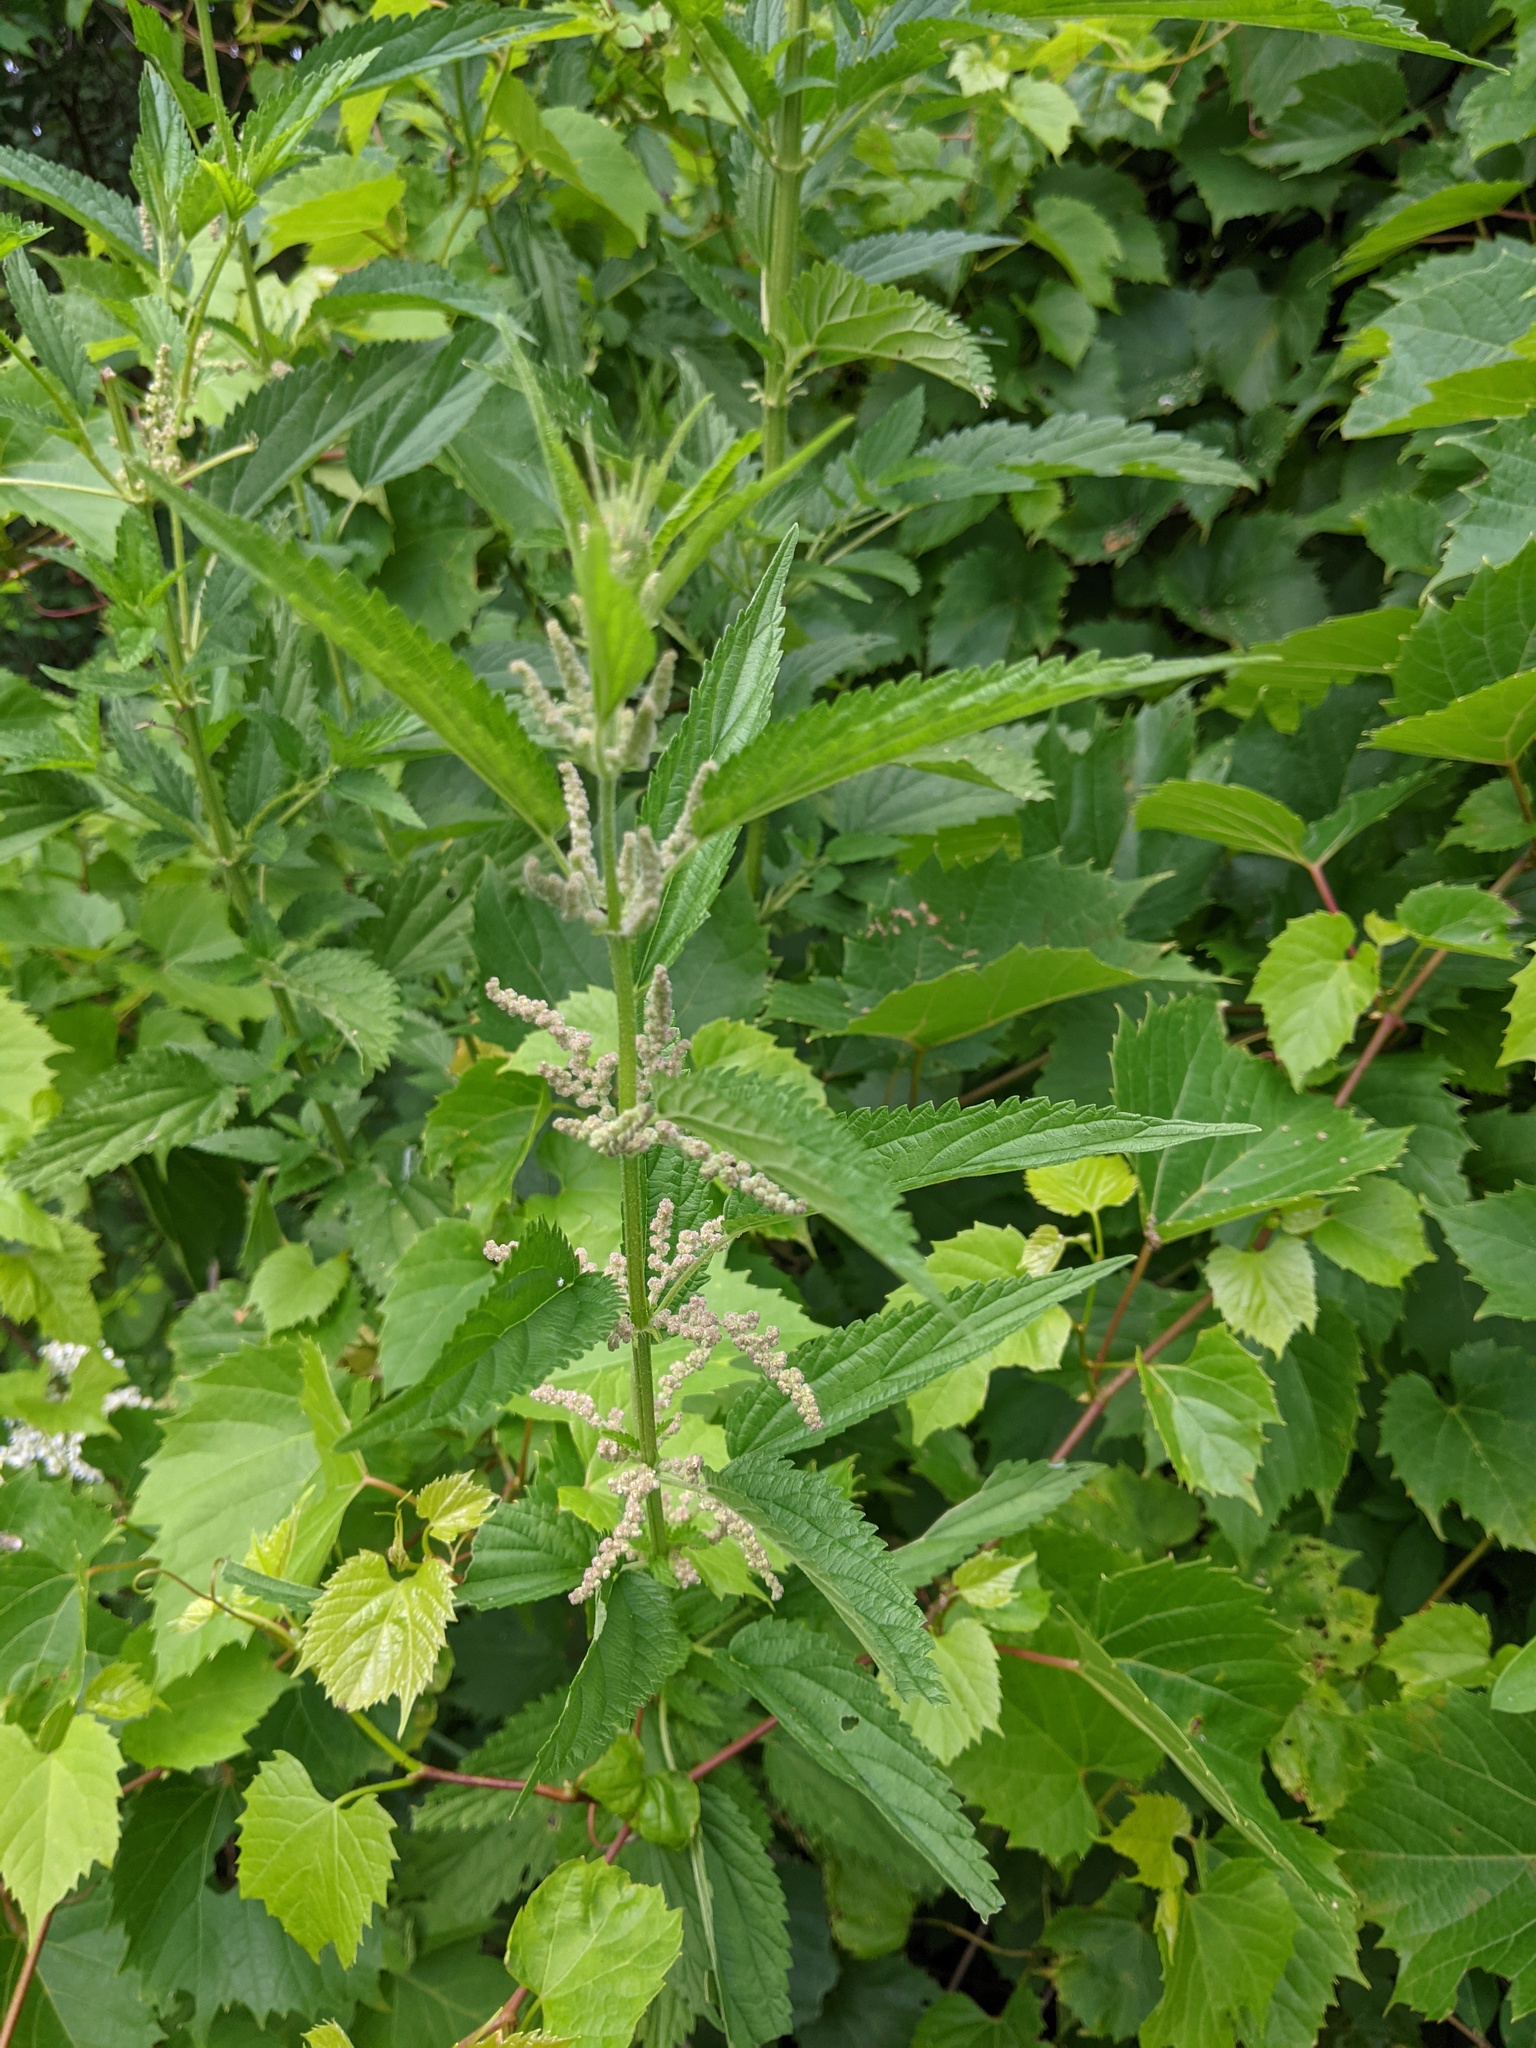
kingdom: Plantae
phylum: Tracheophyta
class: Magnoliopsida
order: Rosales
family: Urticaceae
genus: Urtica
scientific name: Urtica dioica
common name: Common nettle
